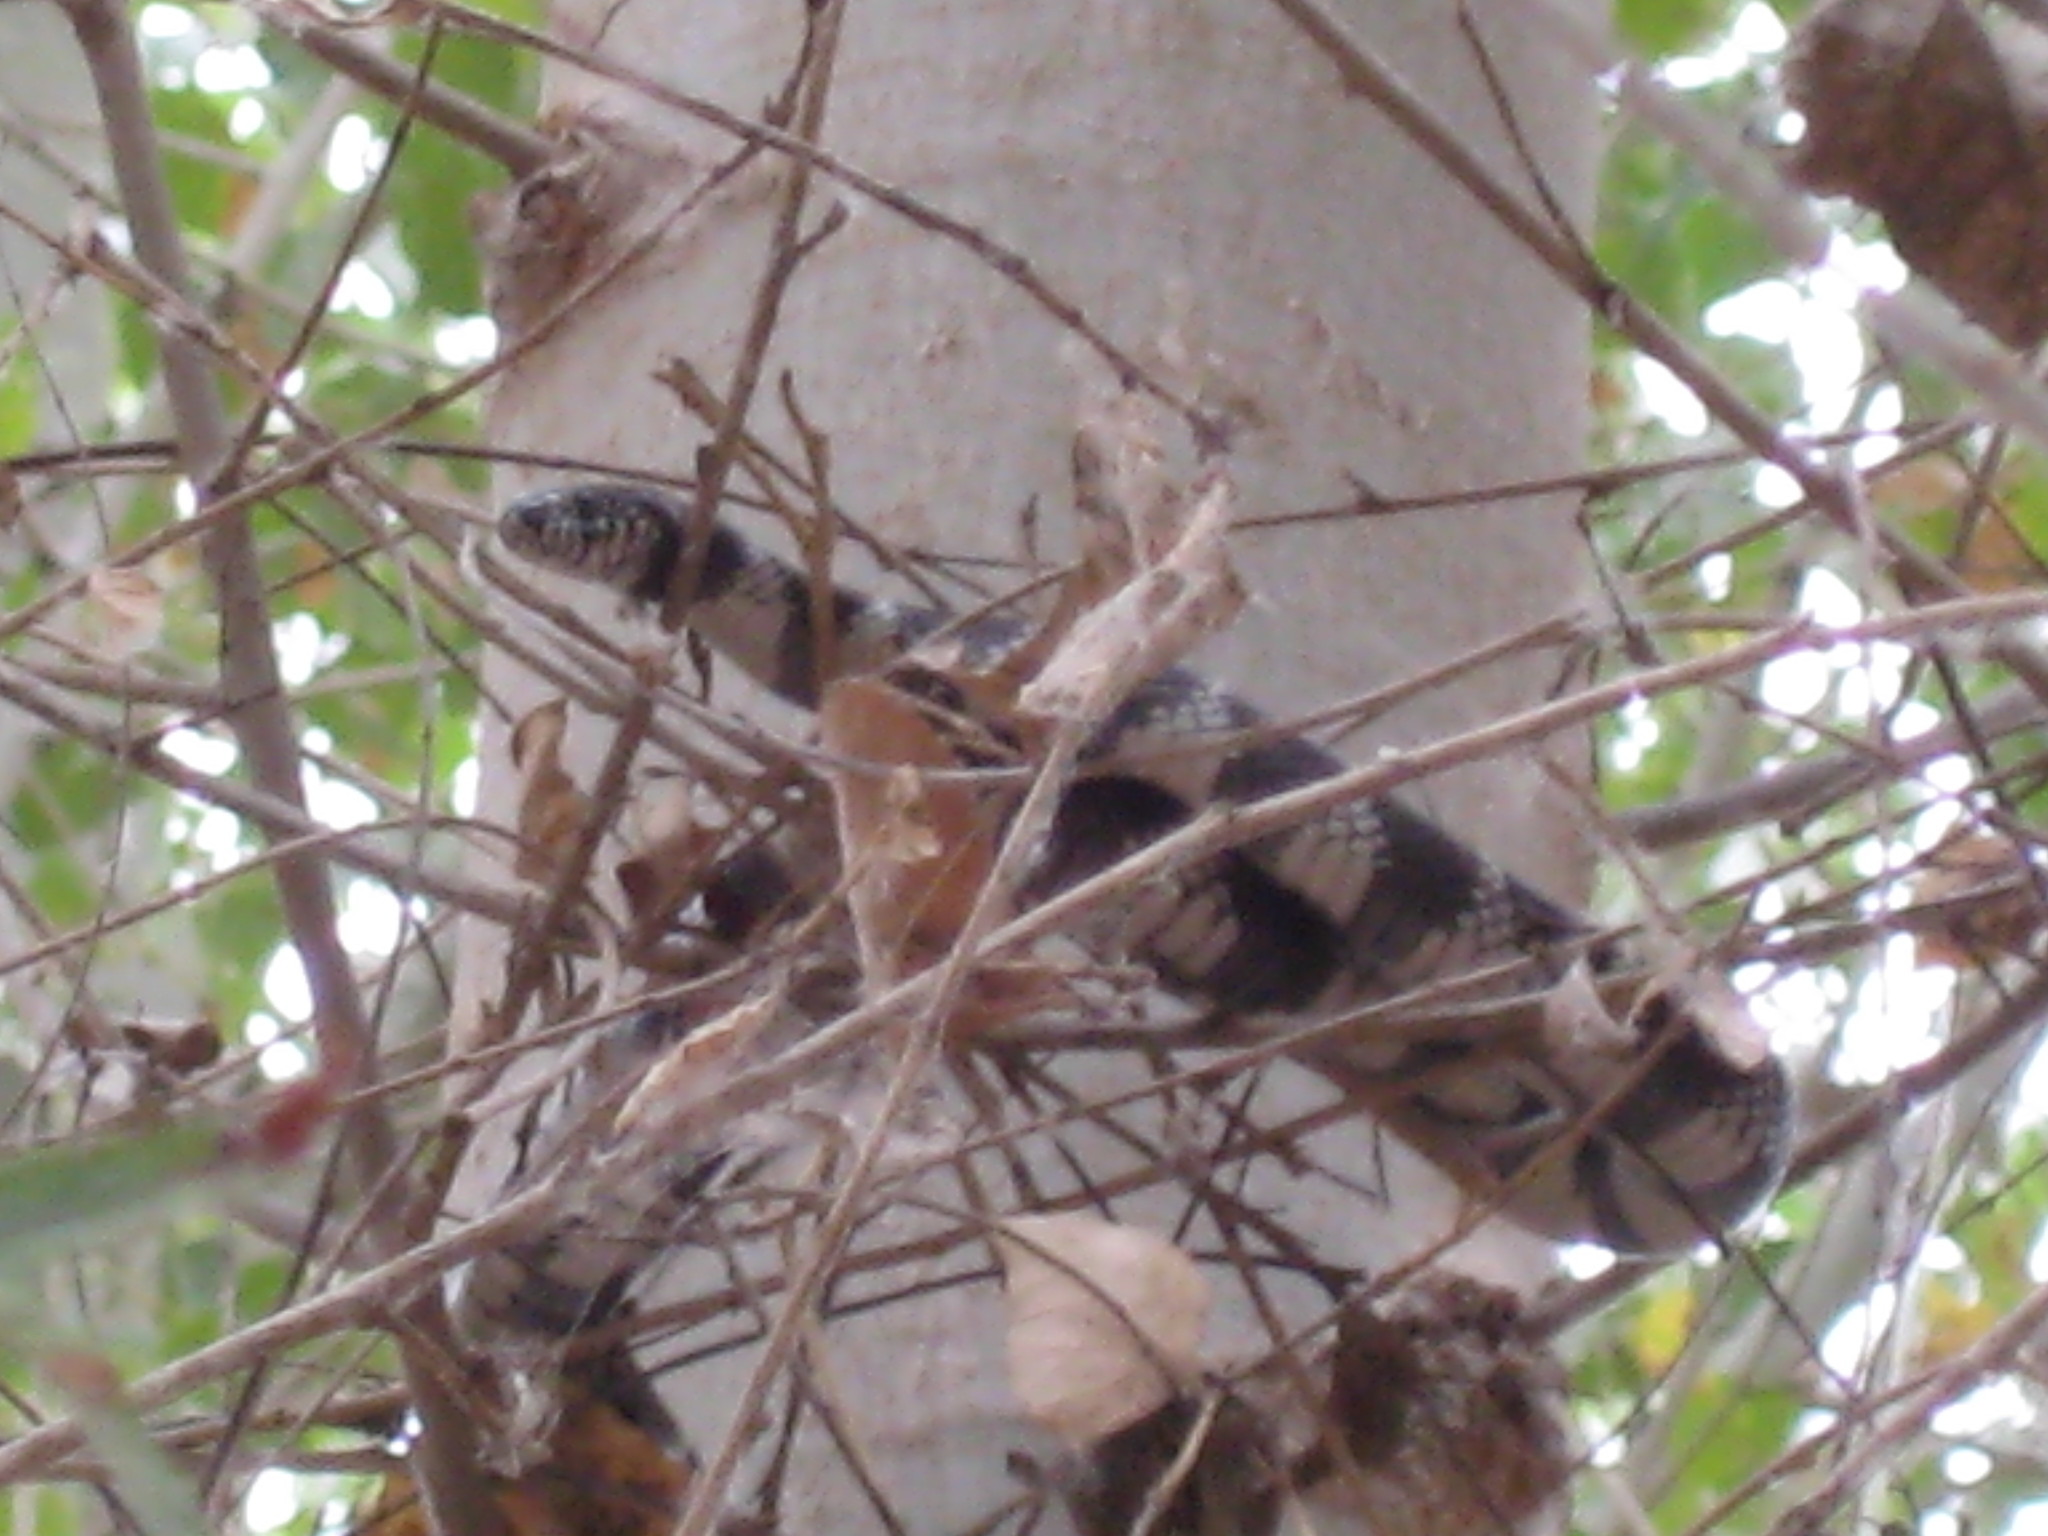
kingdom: Animalia
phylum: Chordata
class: Squamata
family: Colubridae
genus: Lampropeltis
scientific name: Lampropeltis californiae
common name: California kingsnake
